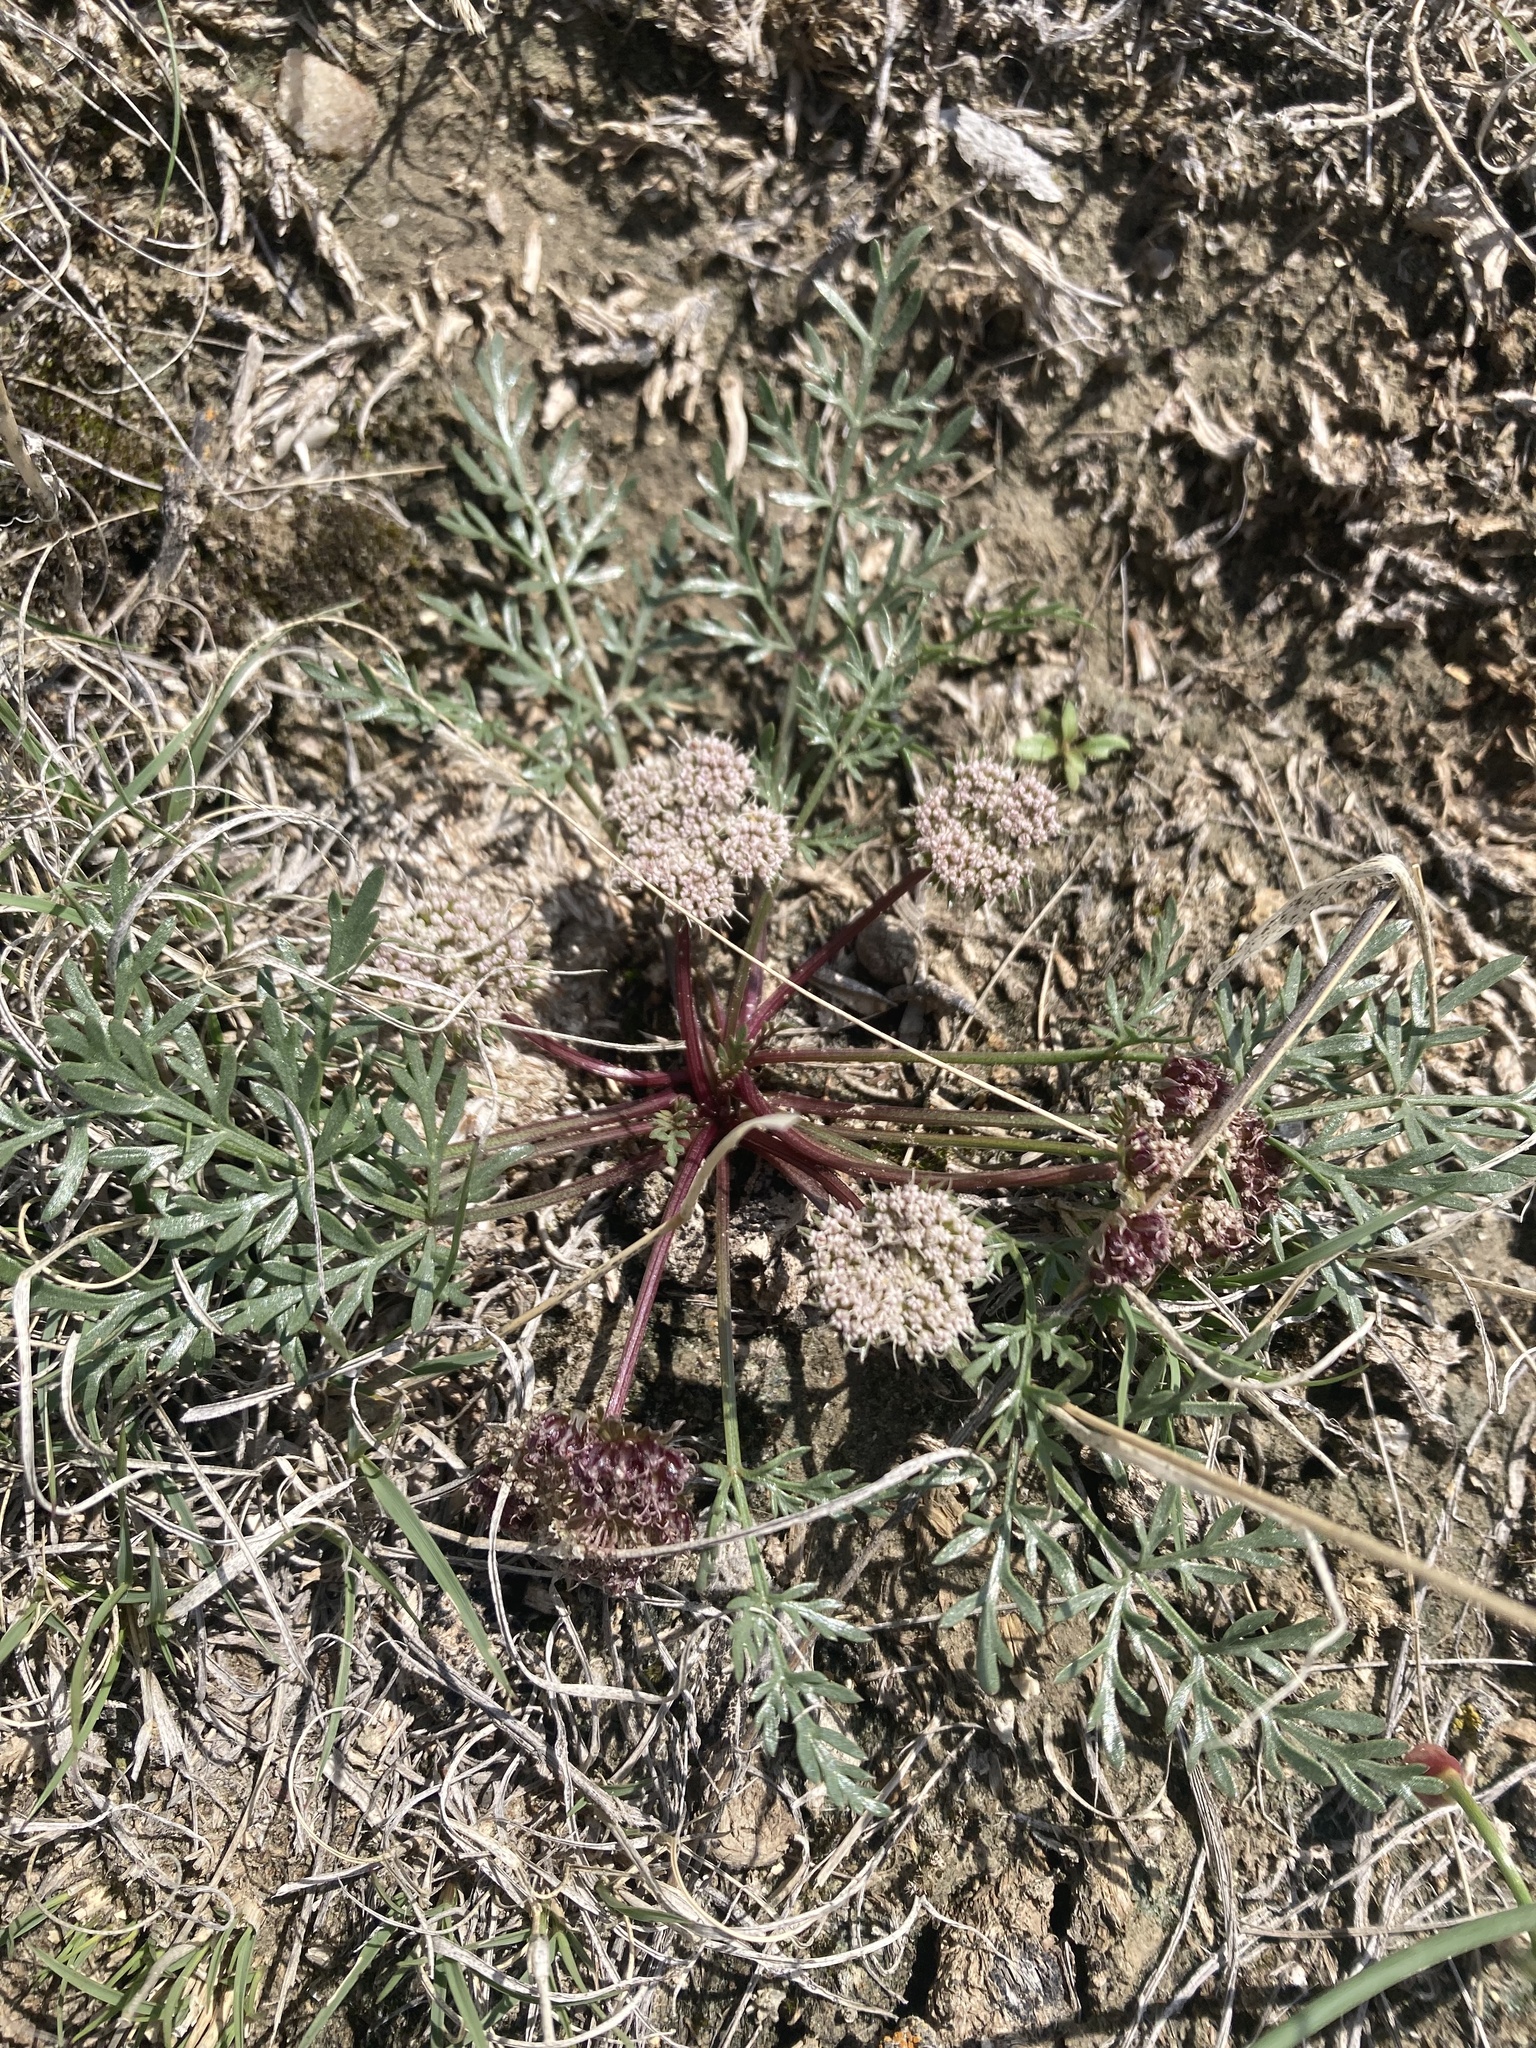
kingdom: Plantae
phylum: Tracheophyta
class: Magnoliopsida
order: Apiales
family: Apiaceae
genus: Cymopterus
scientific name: Cymopterus glomeratus
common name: Plains spring parsley
